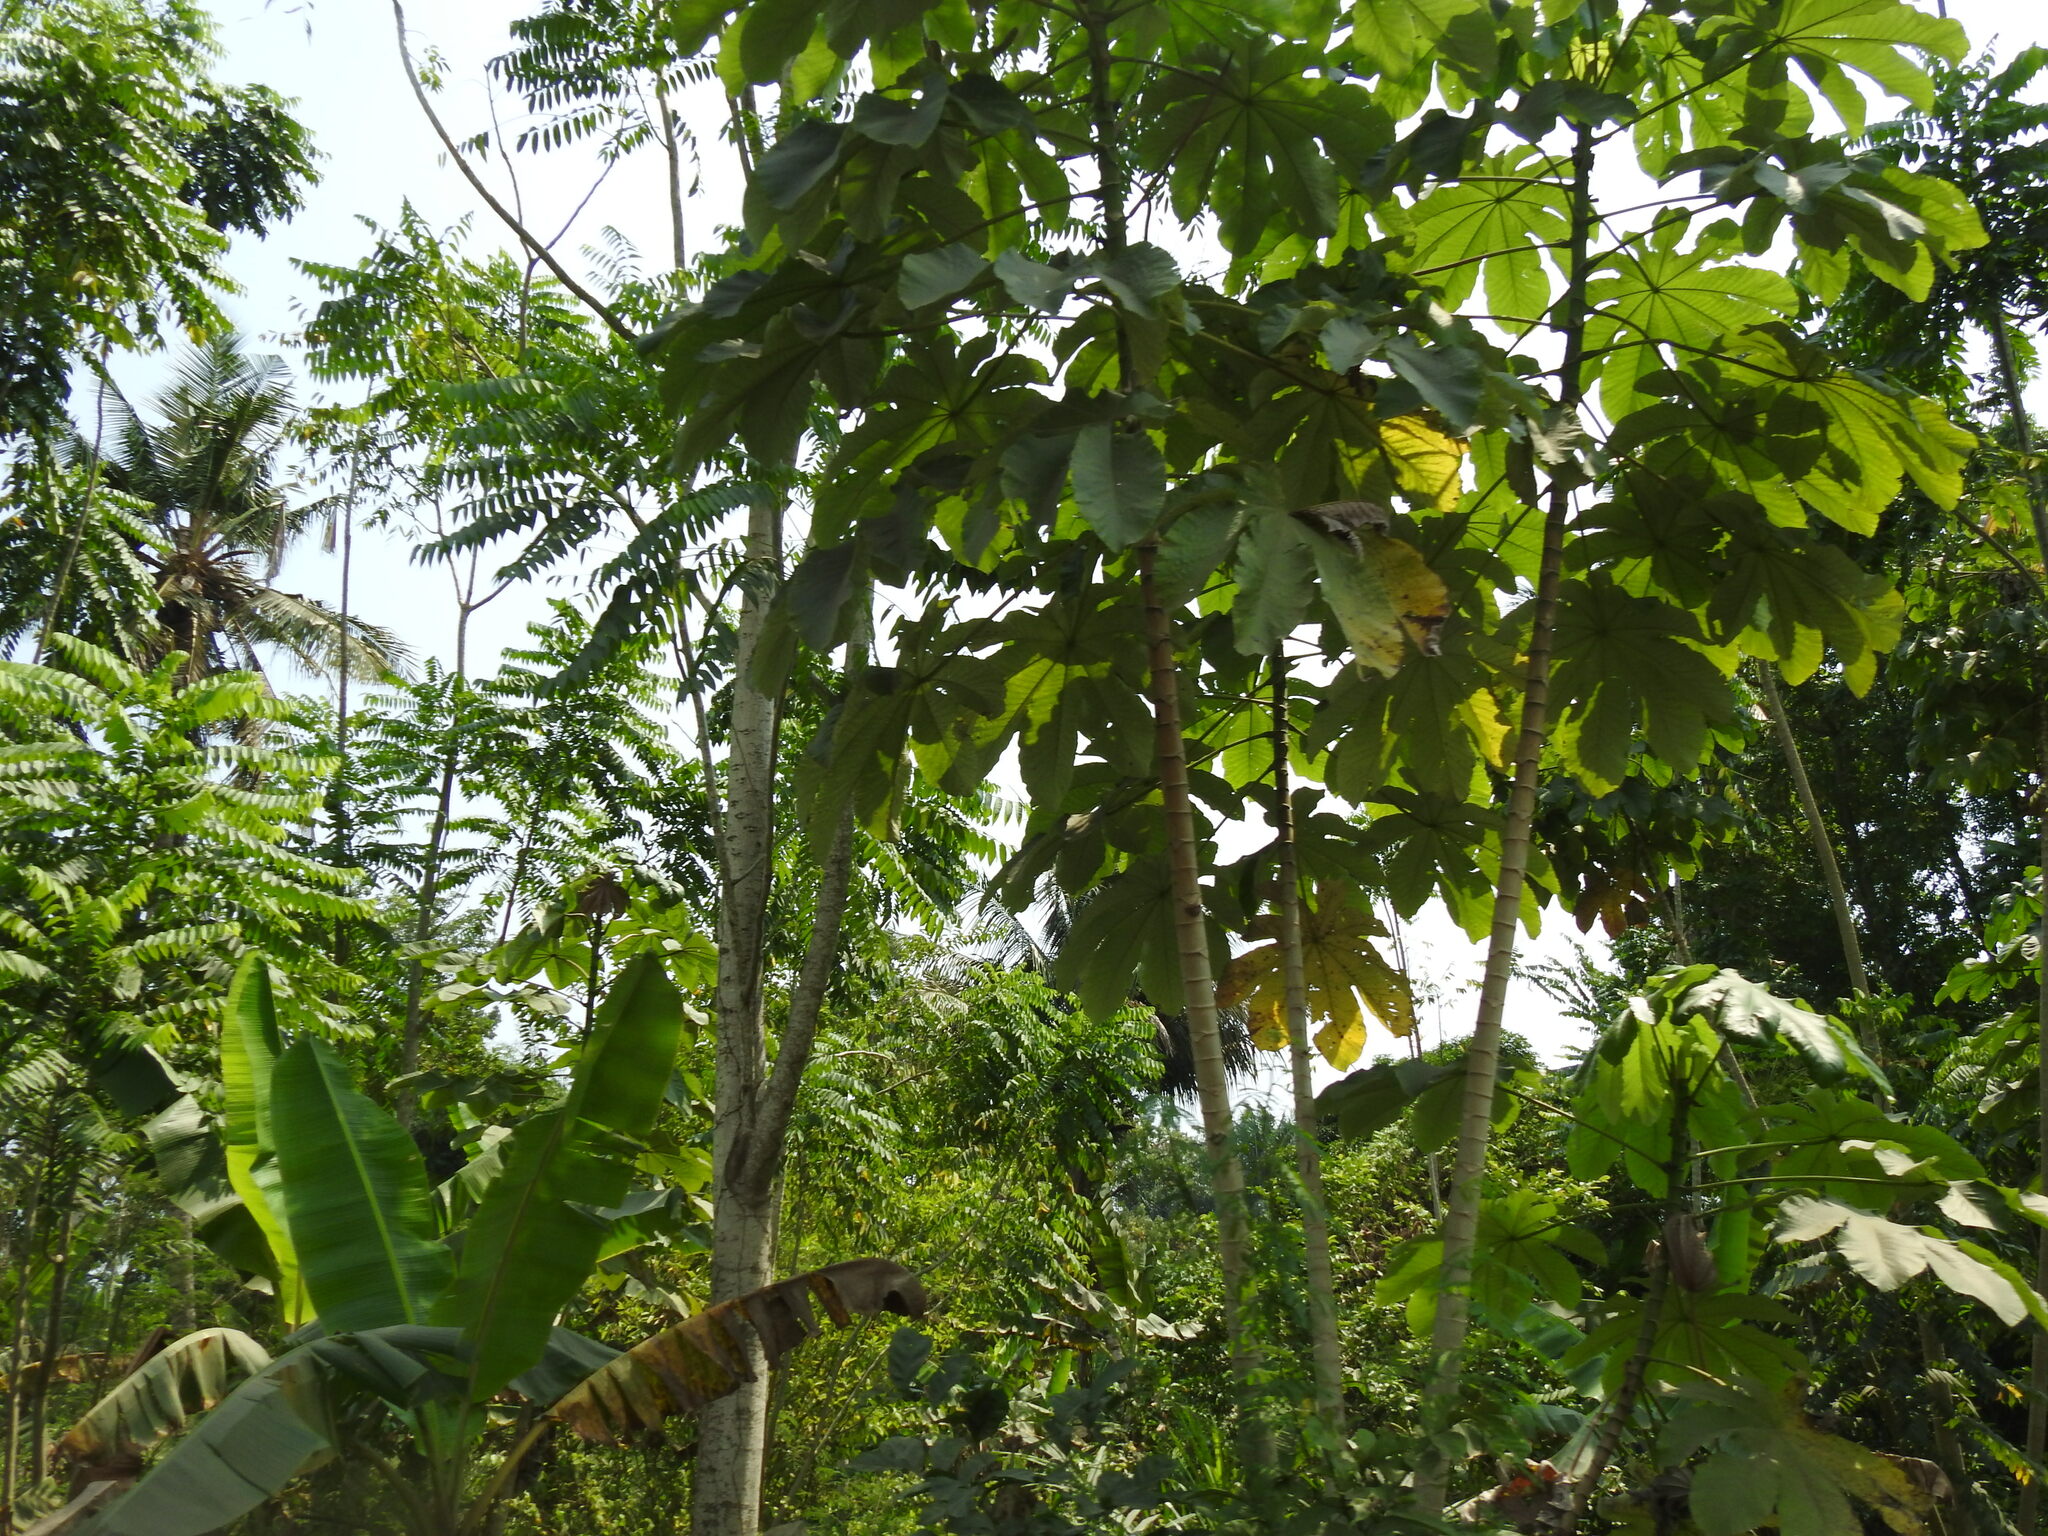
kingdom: Plantae
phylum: Tracheophyta
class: Magnoliopsida
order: Rosales
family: Urticaceae
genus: Cecropia
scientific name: Cecropia peltata
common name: Trumpet-tree
